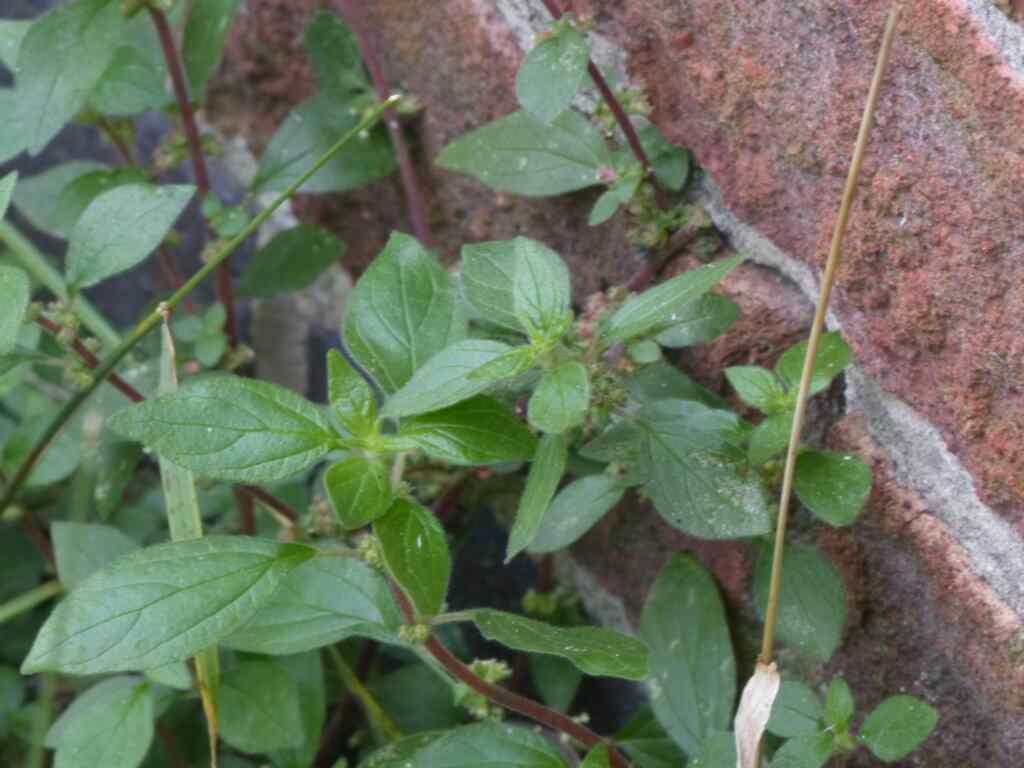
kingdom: Plantae
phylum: Tracheophyta
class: Magnoliopsida
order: Rosales
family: Urticaceae
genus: Parietaria
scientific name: Parietaria judaica
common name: Pellitory-of-the-wall
